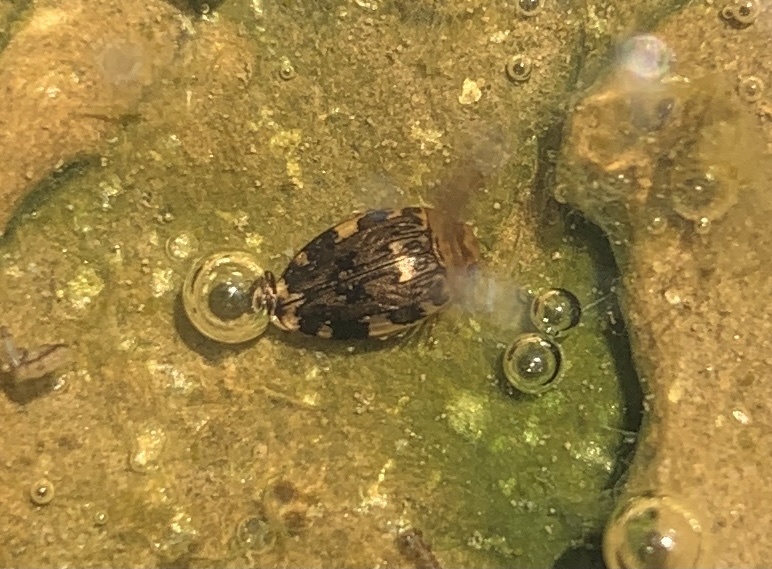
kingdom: Animalia
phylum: Arthropoda
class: Insecta
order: Coleoptera
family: Dytiscidae
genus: Laccophilus
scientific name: Laccophilus maculosus
